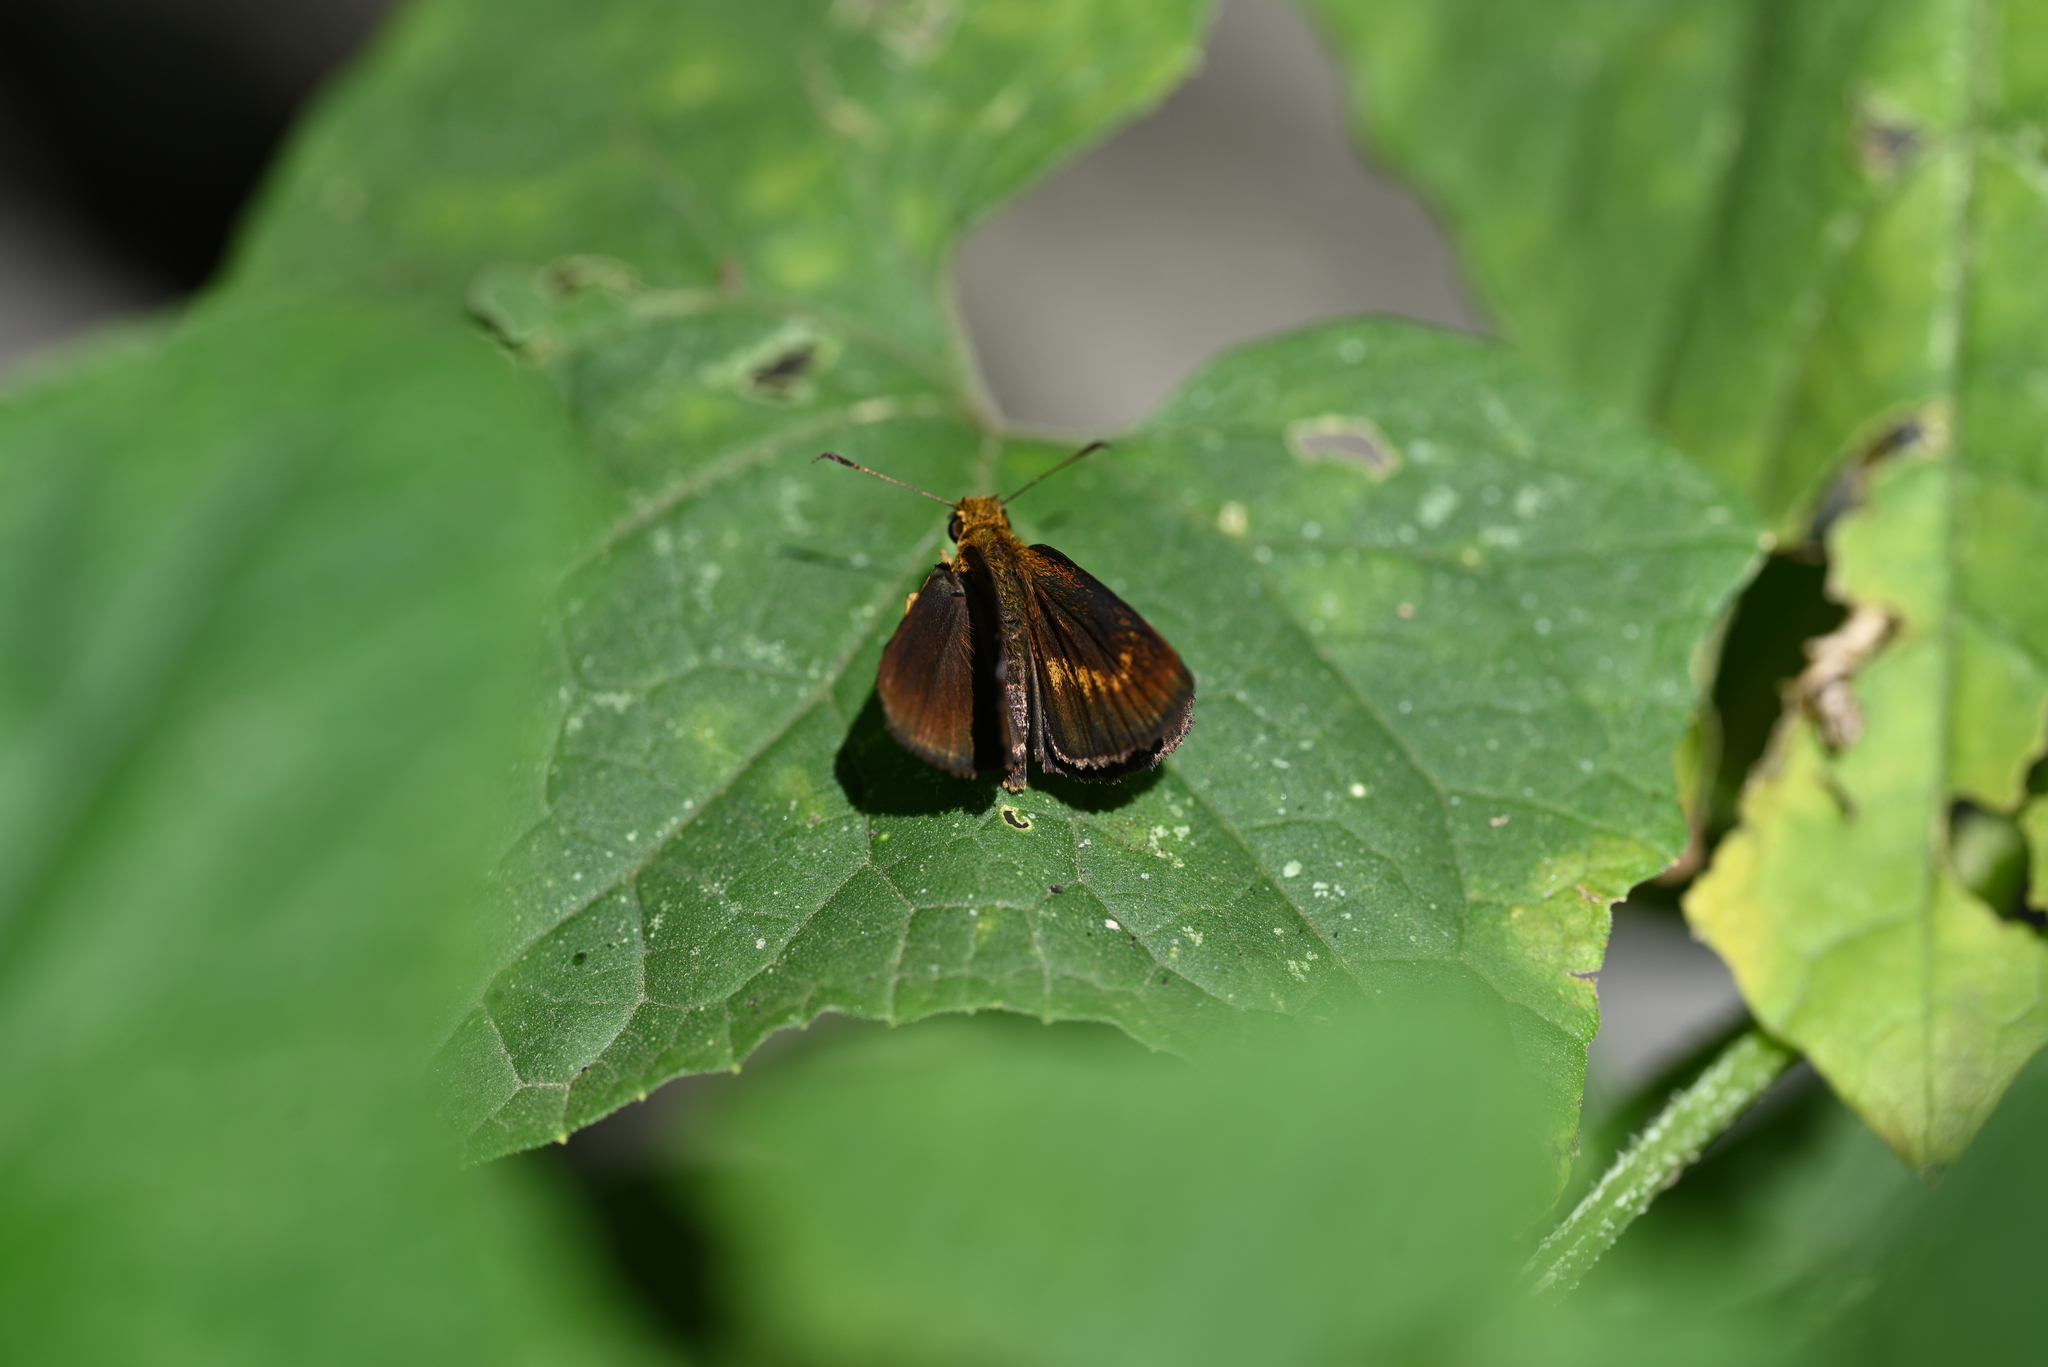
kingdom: Animalia
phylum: Arthropoda
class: Insecta
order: Lepidoptera
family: Hesperiidae
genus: Iambrix
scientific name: Iambrix salsala
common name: Chestnut bob
